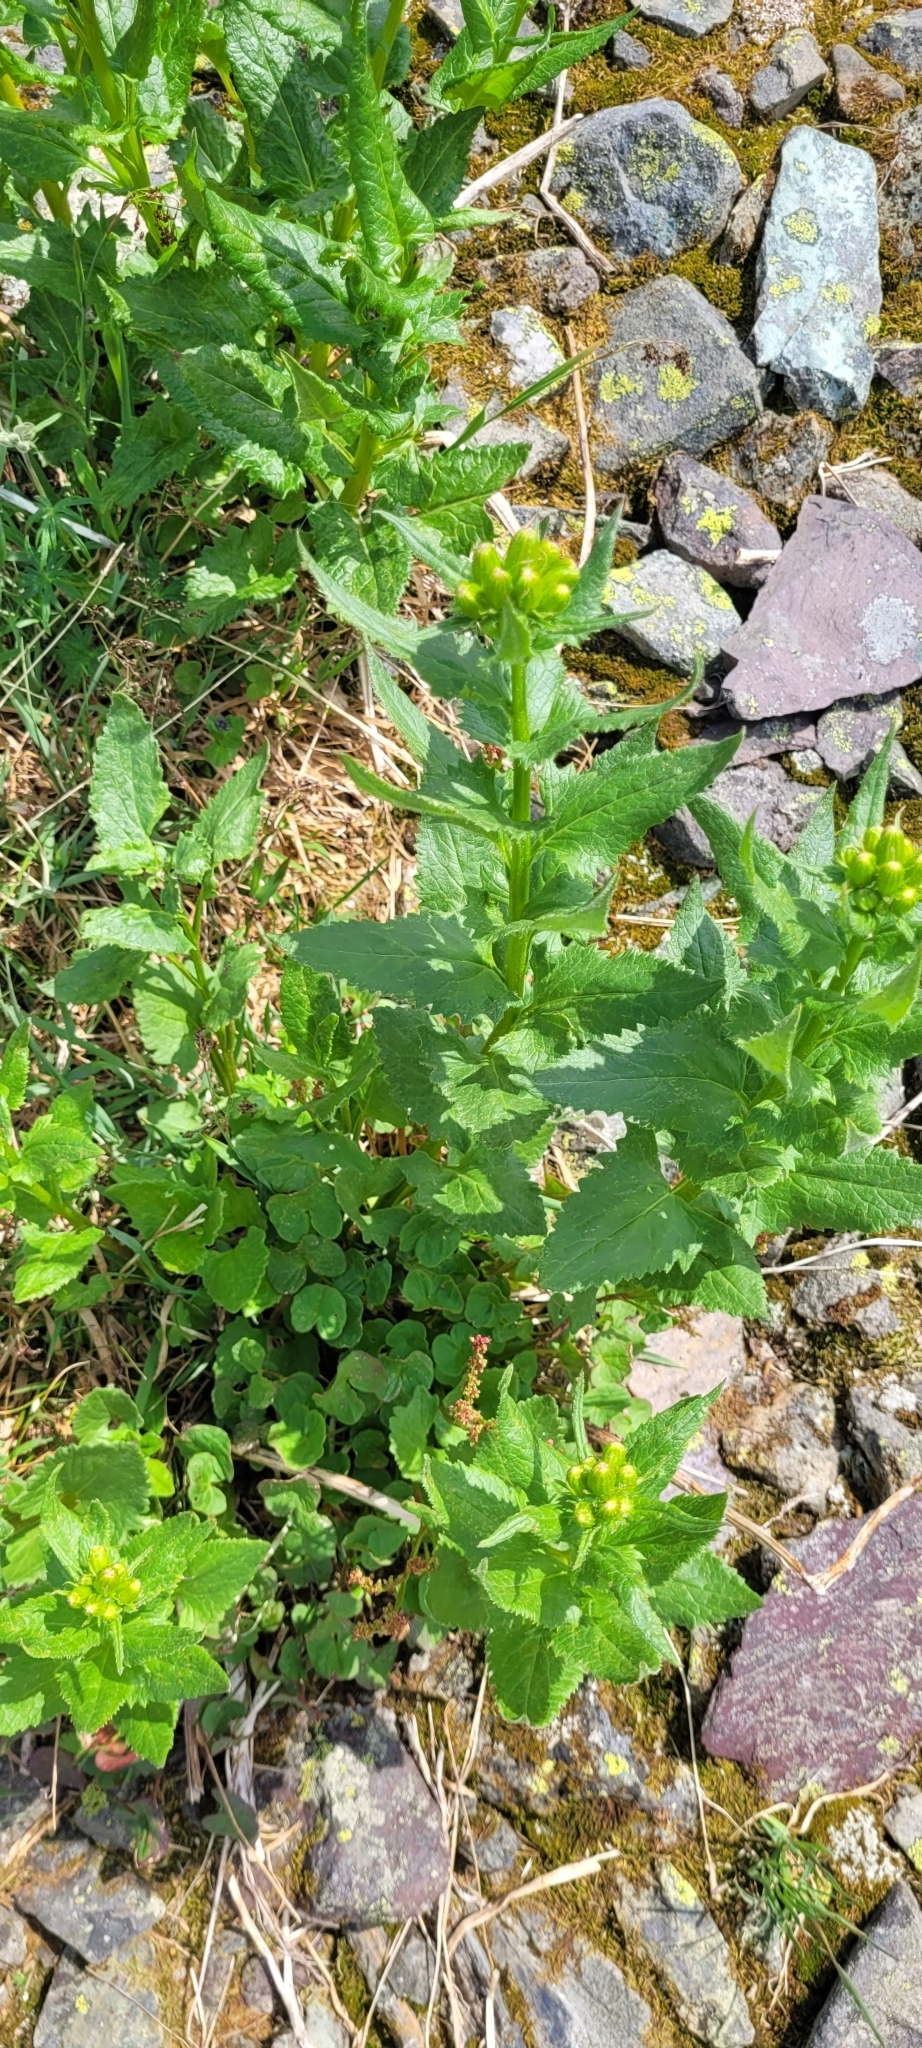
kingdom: Plantae
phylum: Tracheophyta
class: Magnoliopsida
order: Asterales
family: Asteraceae
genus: Senecio
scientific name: Senecio triangularis
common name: Arrowleaf butterweed
